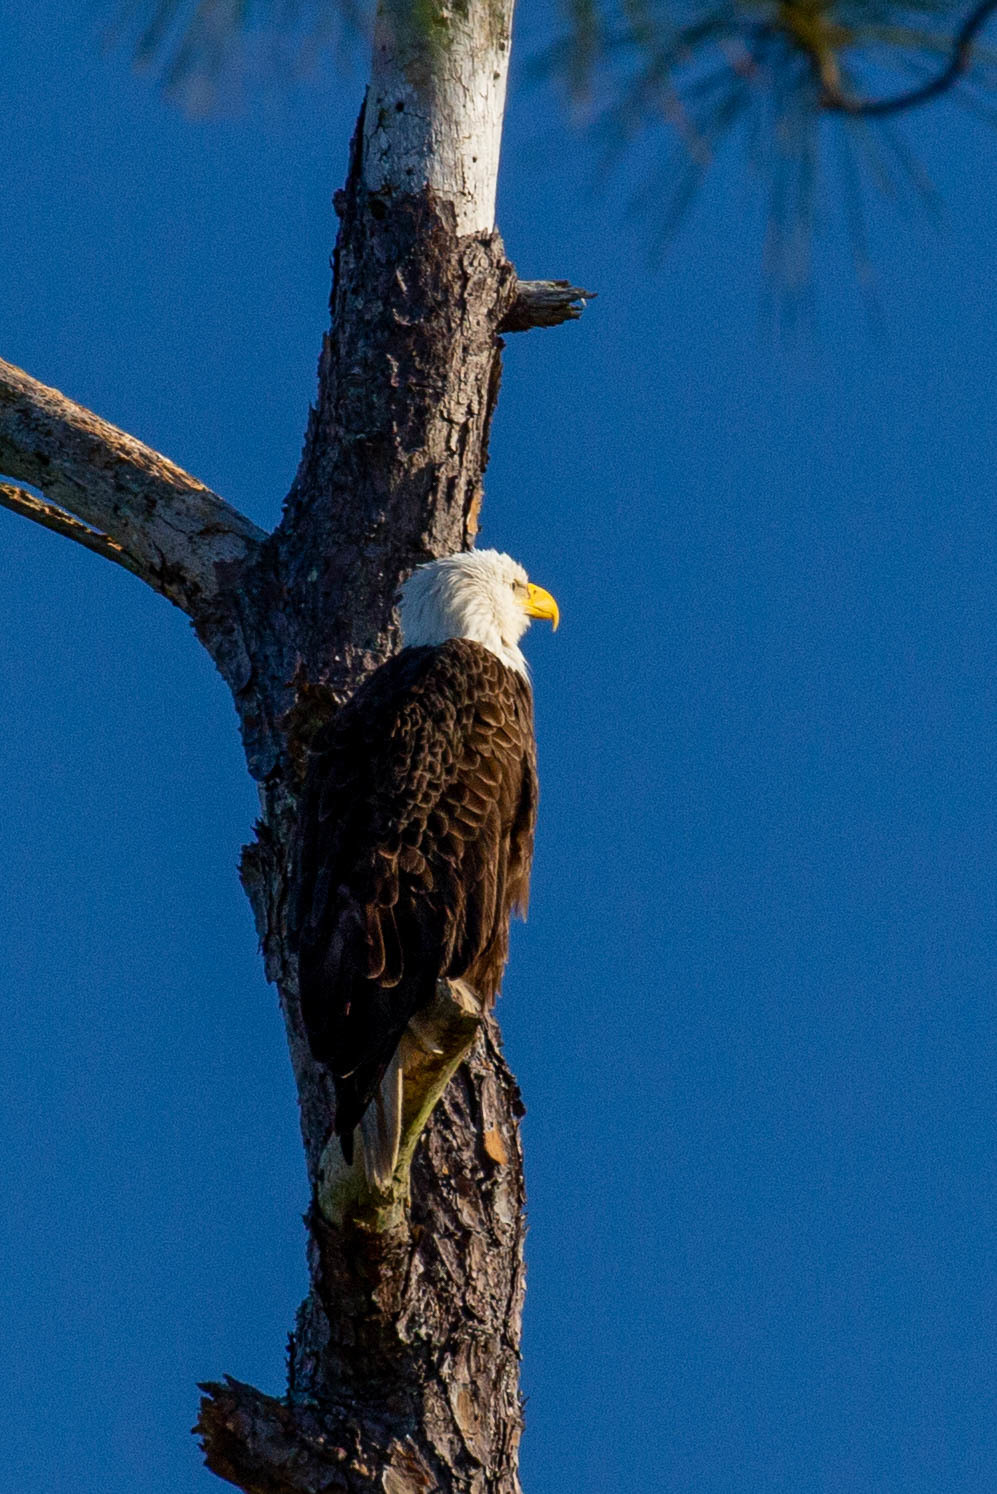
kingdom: Animalia
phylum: Chordata
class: Aves
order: Accipitriformes
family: Accipitridae
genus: Haliaeetus
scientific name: Haliaeetus leucocephalus
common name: Bald eagle
